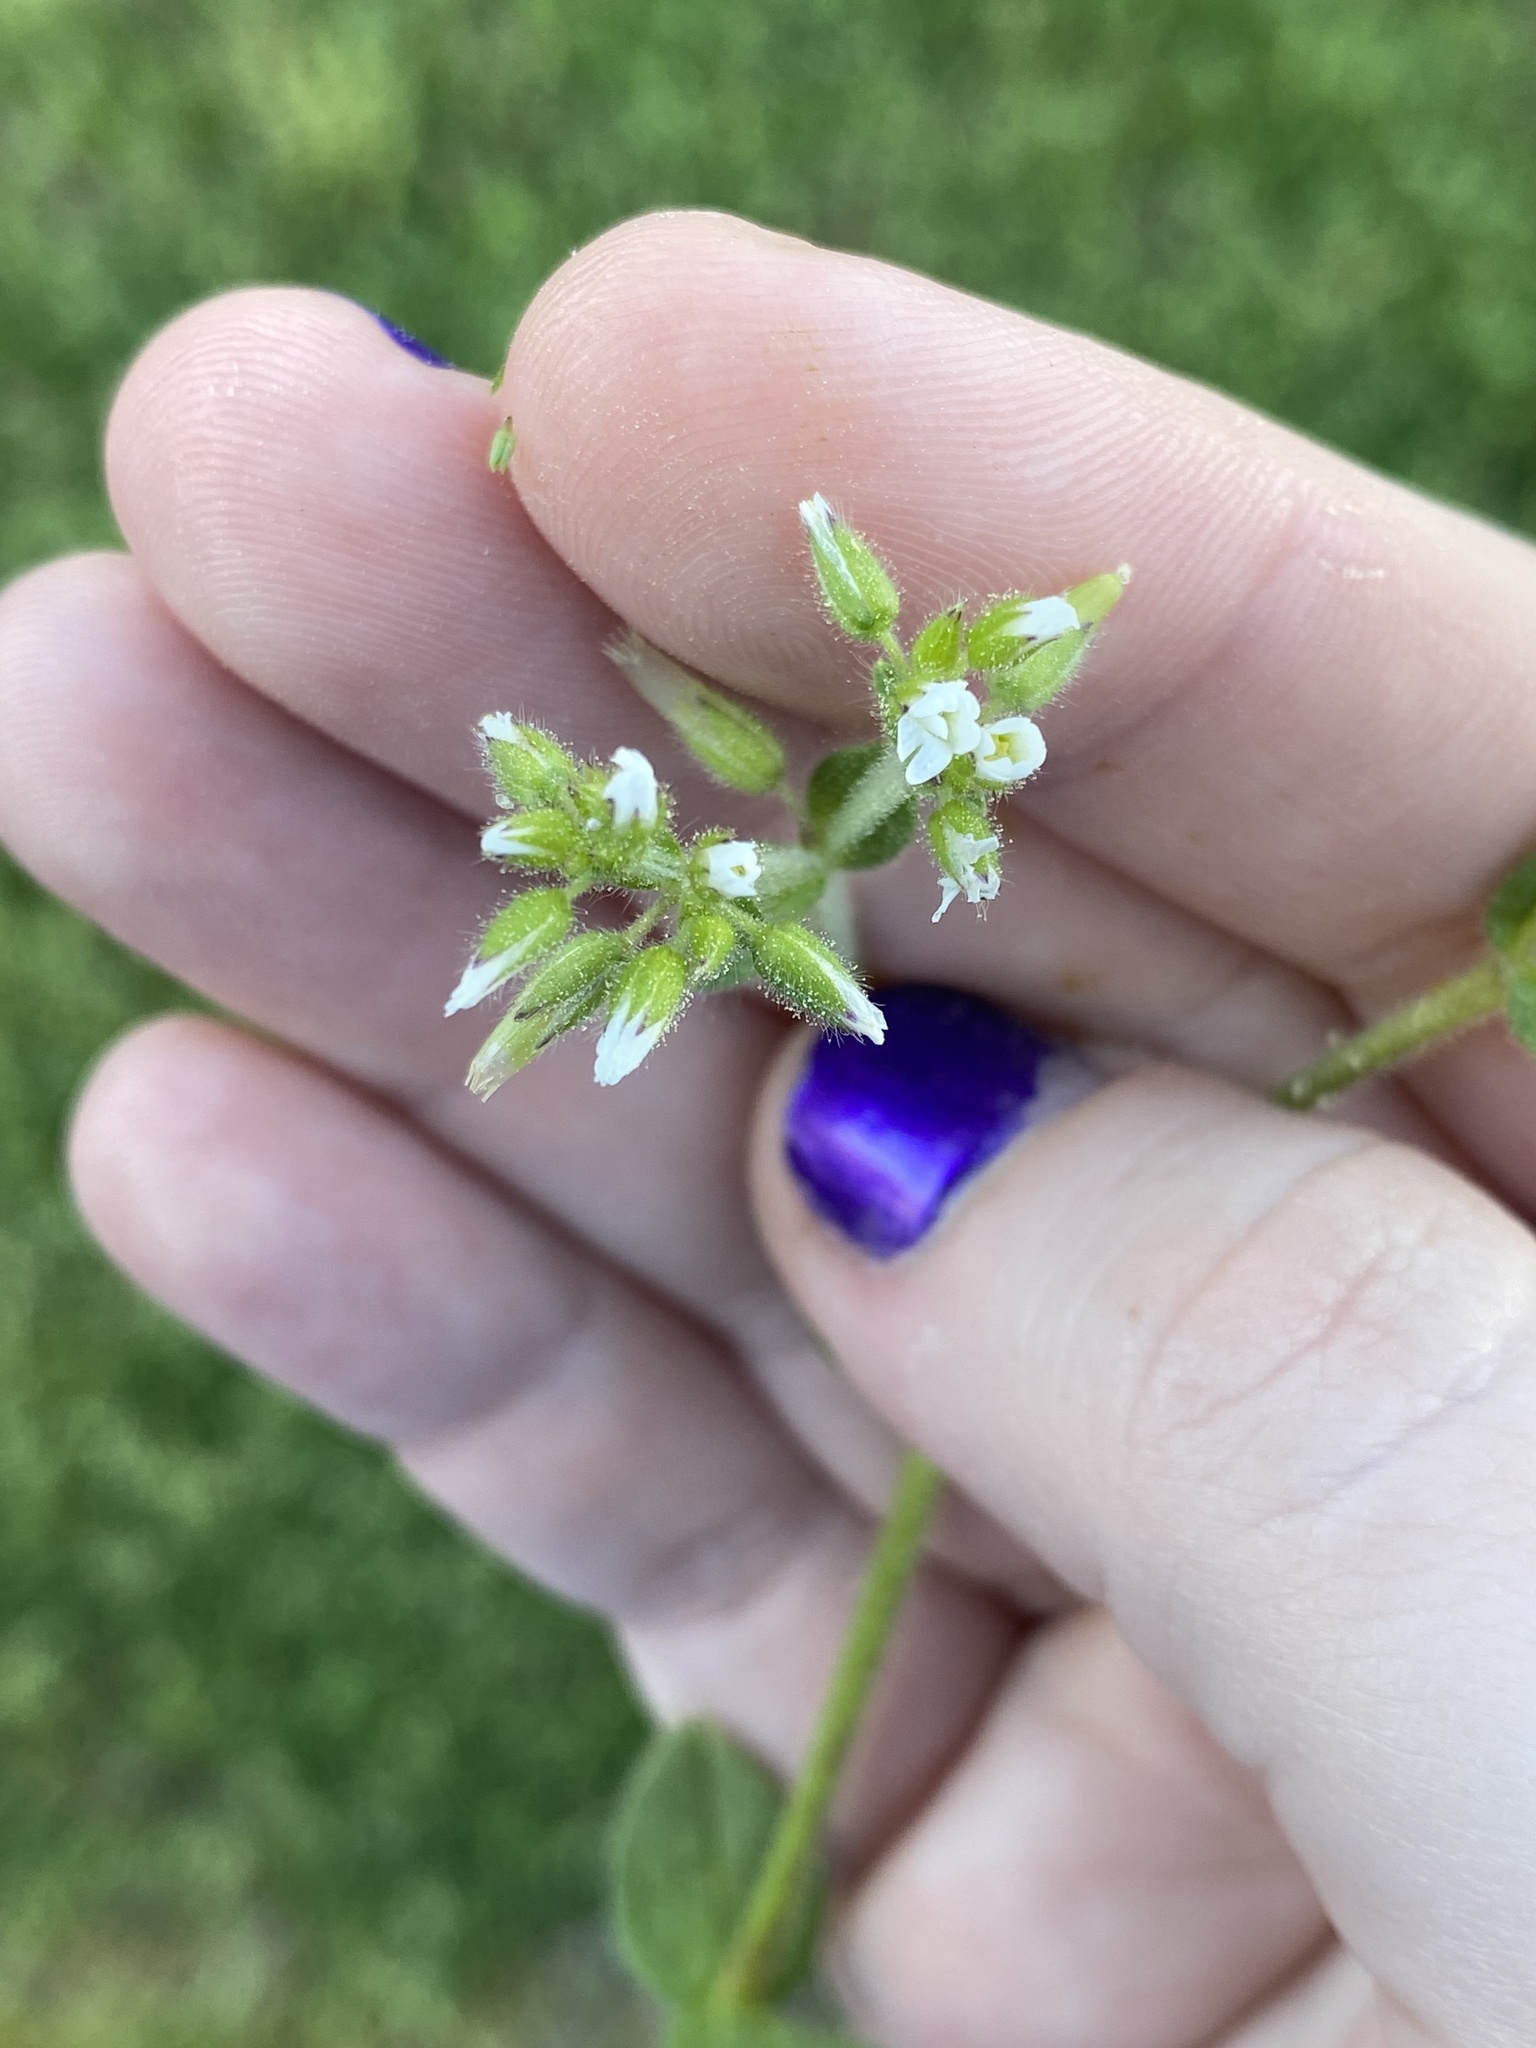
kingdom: Plantae
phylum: Tracheophyta
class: Magnoliopsida
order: Caryophyllales
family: Caryophyllaceae
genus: Cerastium
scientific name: Cerastium glomeratum
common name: Sticky chickweed
